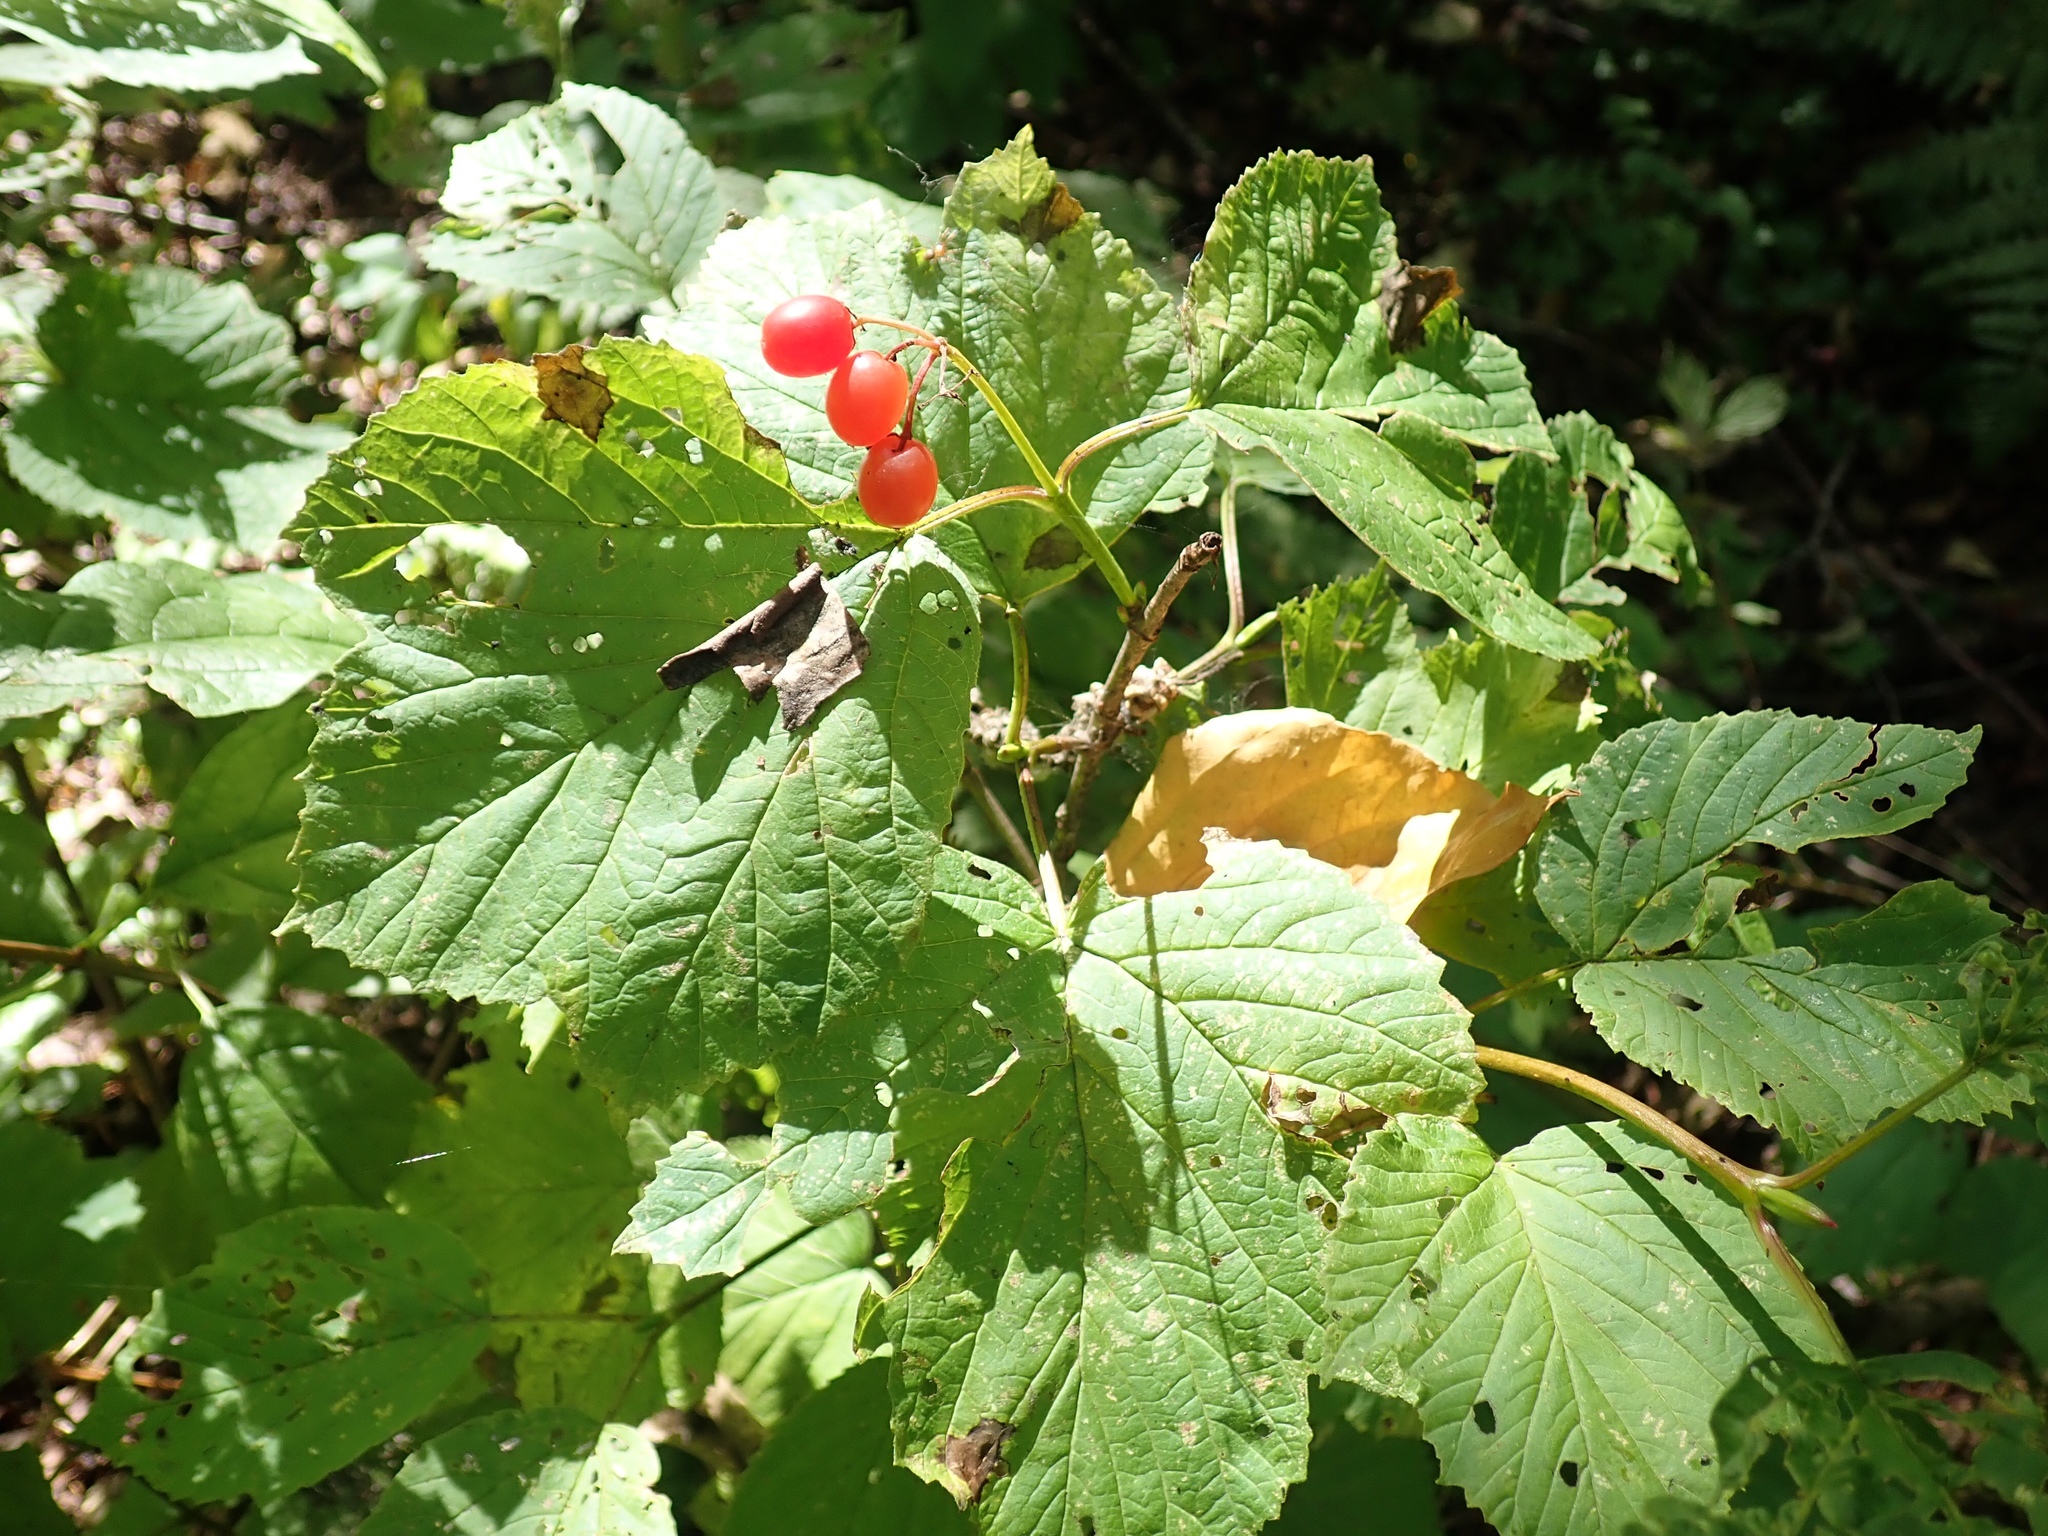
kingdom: Plantae
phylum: Tracheophyta
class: Magnoliopsida
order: Dipsacales
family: Viburnaceae
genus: Viburnum
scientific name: Viburnum edule
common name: Mooseberry
